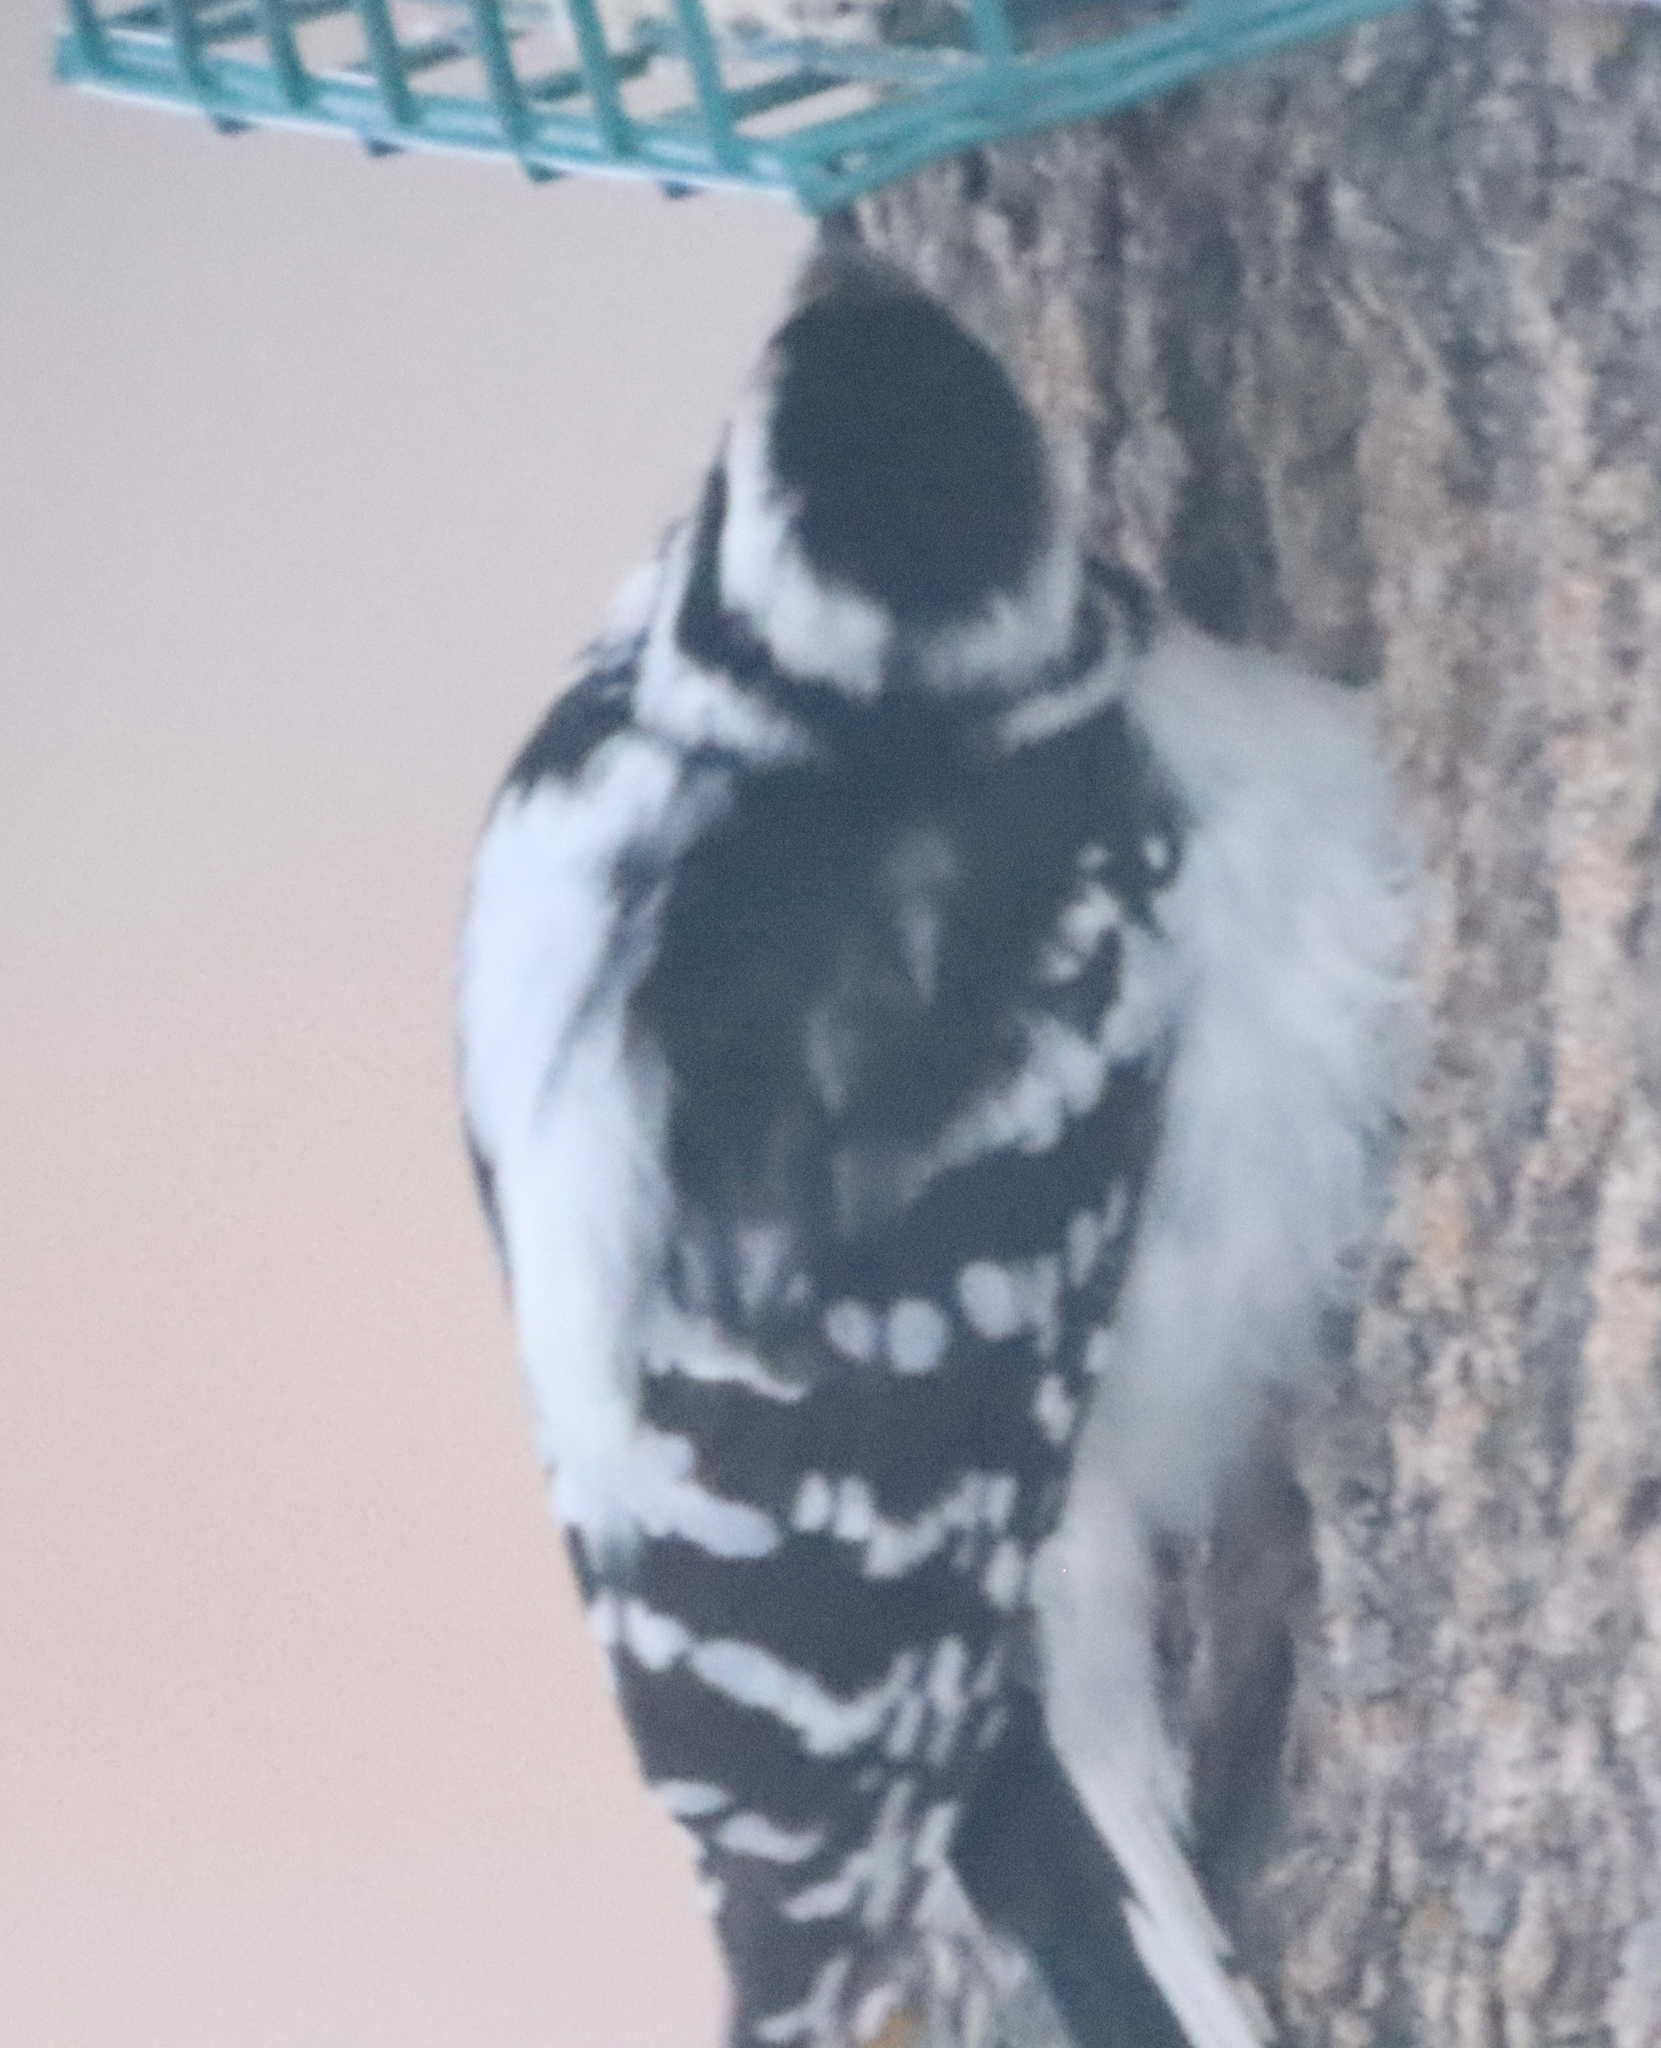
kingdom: Animalia
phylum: Chordata
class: Aves
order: Piciformes
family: Picidae
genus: Dryobates
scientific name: Dryobates pubescens
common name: Downy woodpecker
